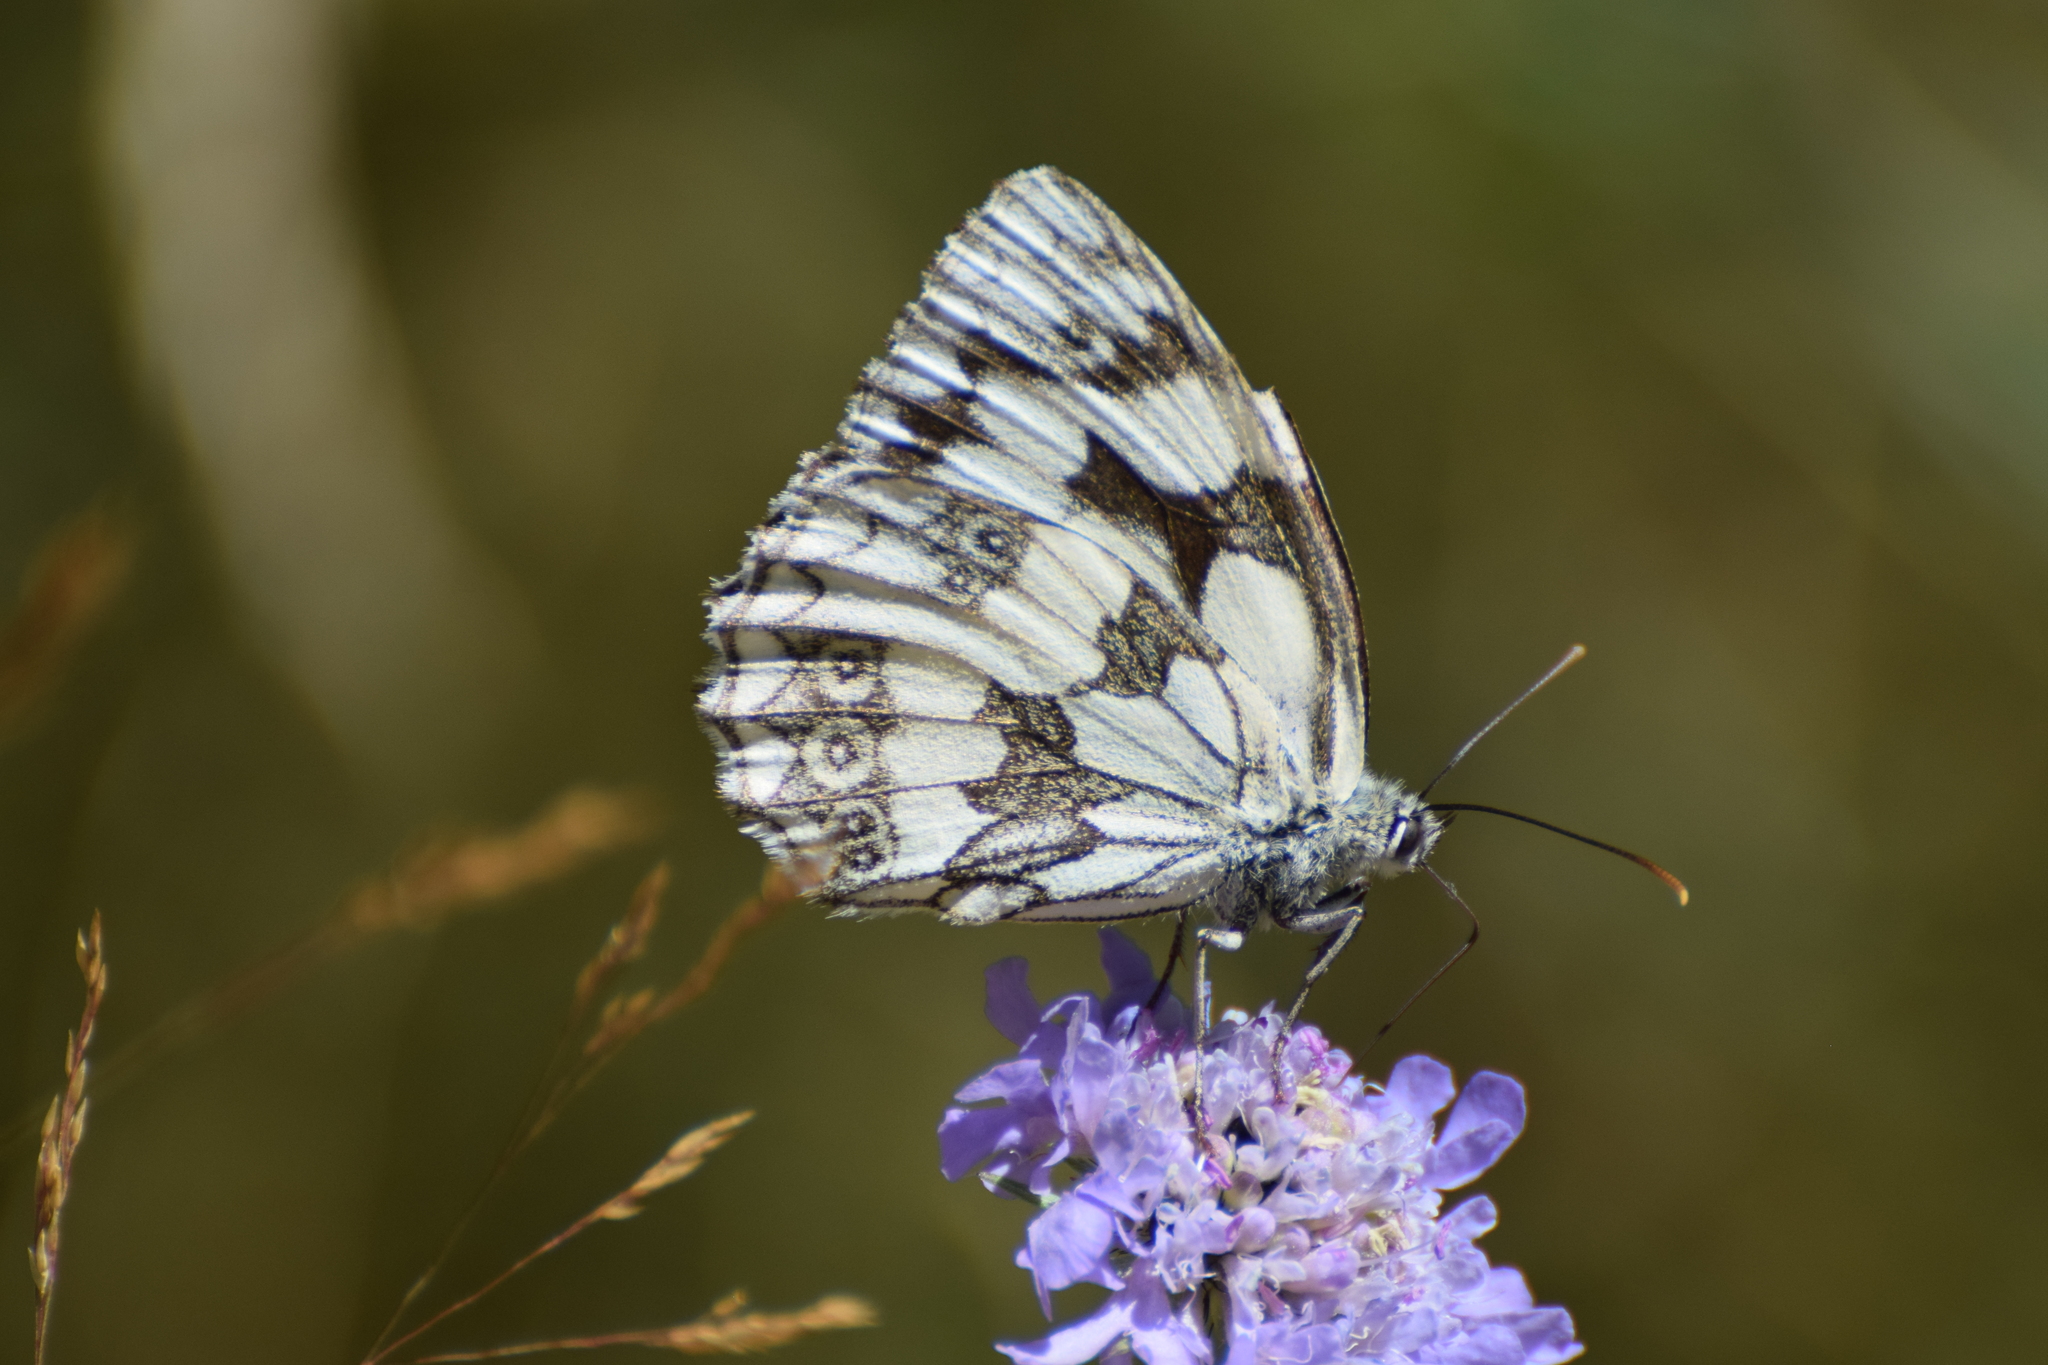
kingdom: Animalia
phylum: Arthropoda
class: Insecta
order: Lepidoptera
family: Nymphalidae
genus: Melanargia
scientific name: Melanargia galathea
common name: Marbled white
